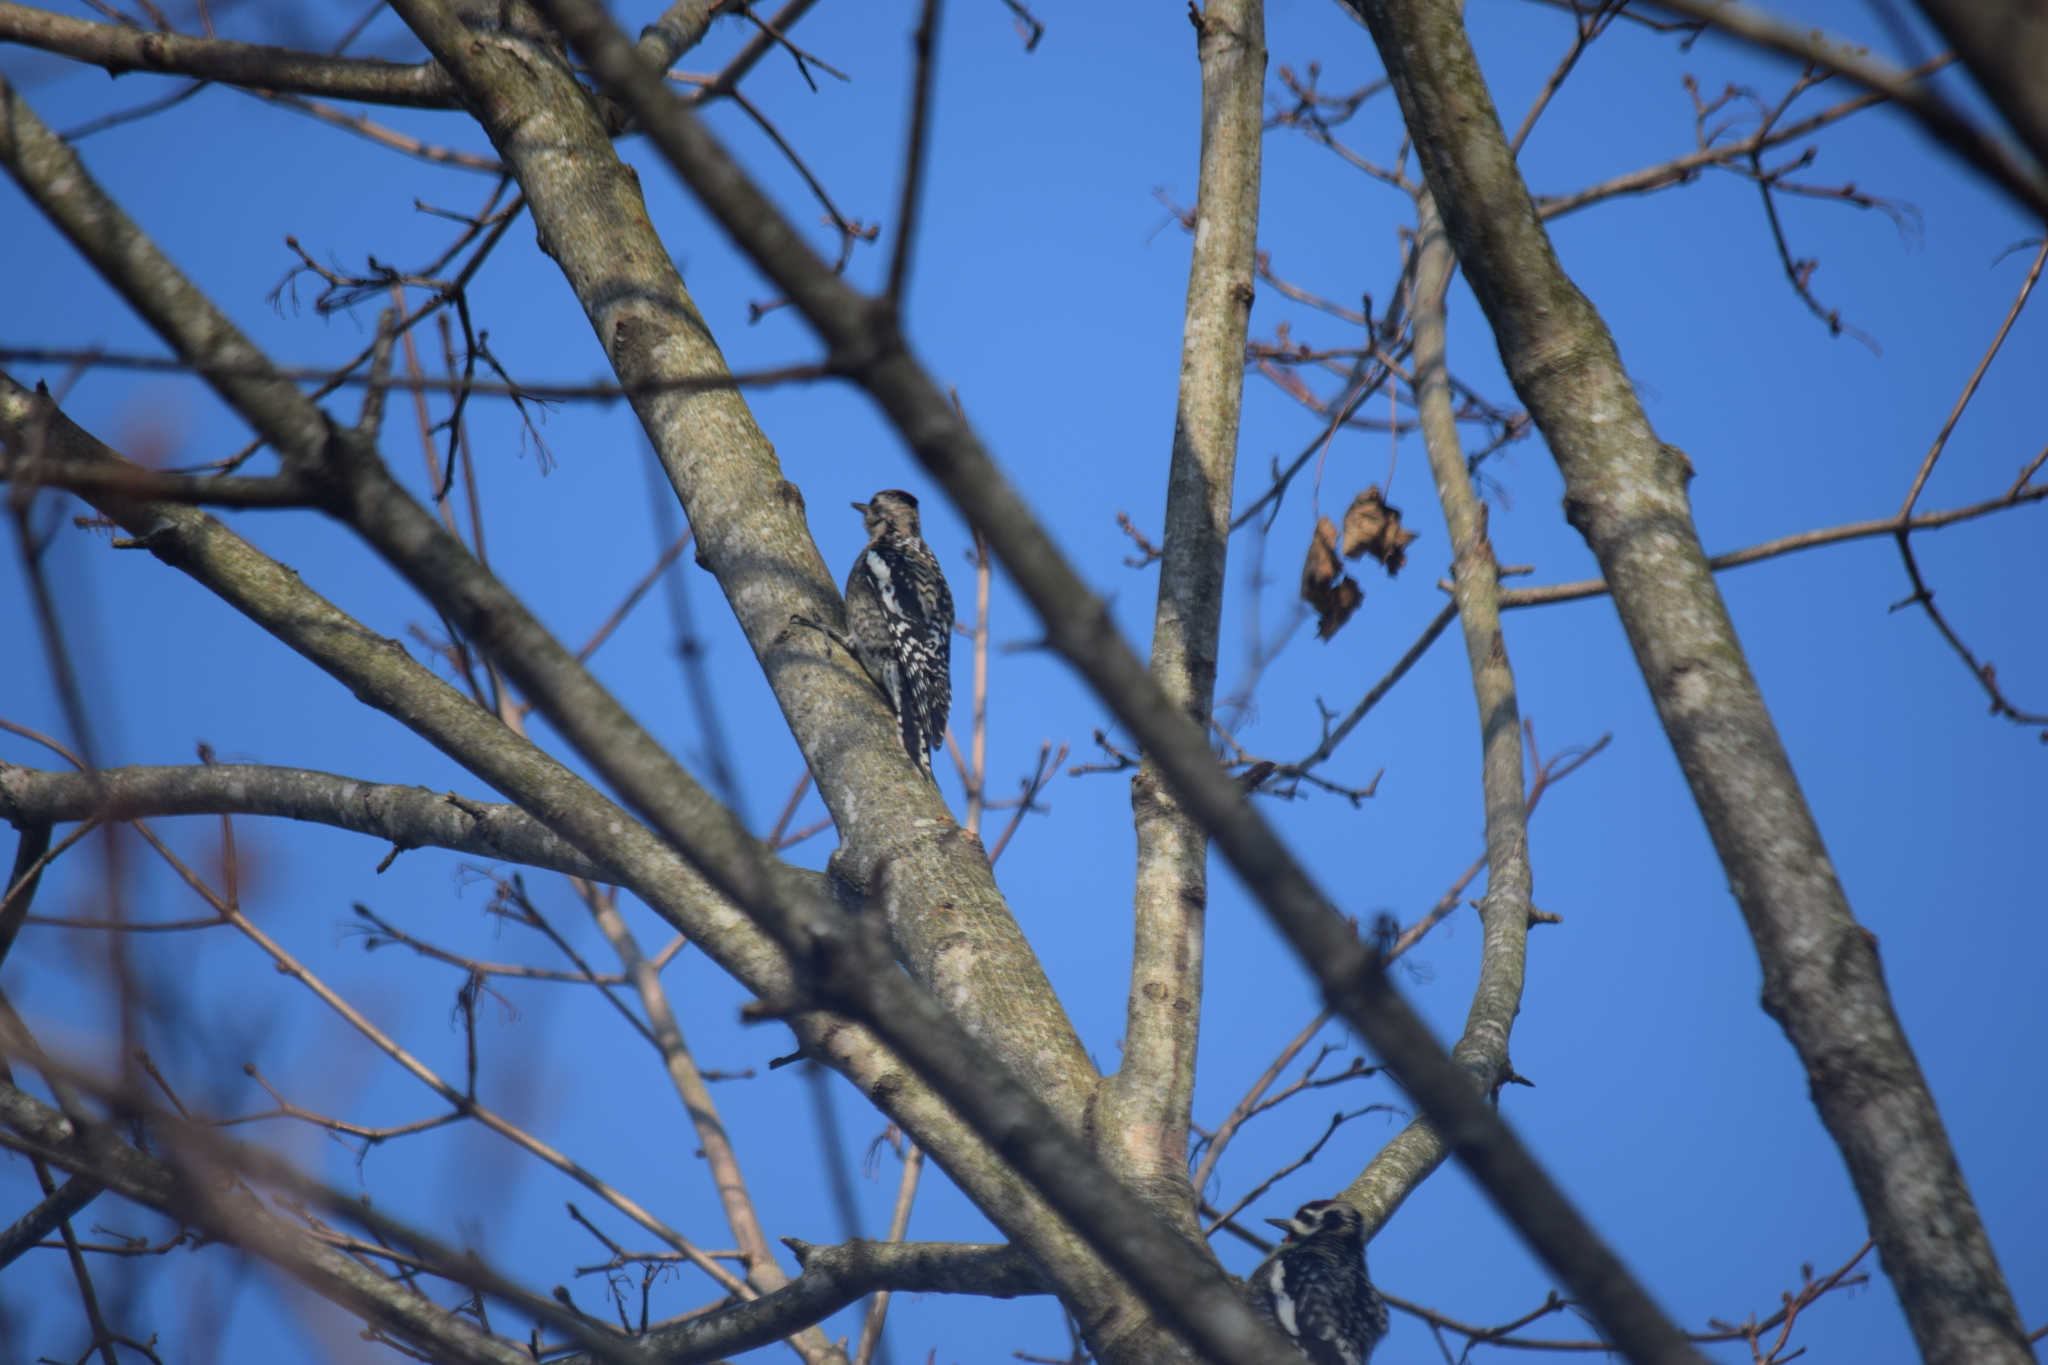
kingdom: Animalia
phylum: Chordata
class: Aves
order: Piciformes
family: Picidae
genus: Sphyrapicus
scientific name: Sphyrapicus varius
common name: Yellow-bellied sapsucker
